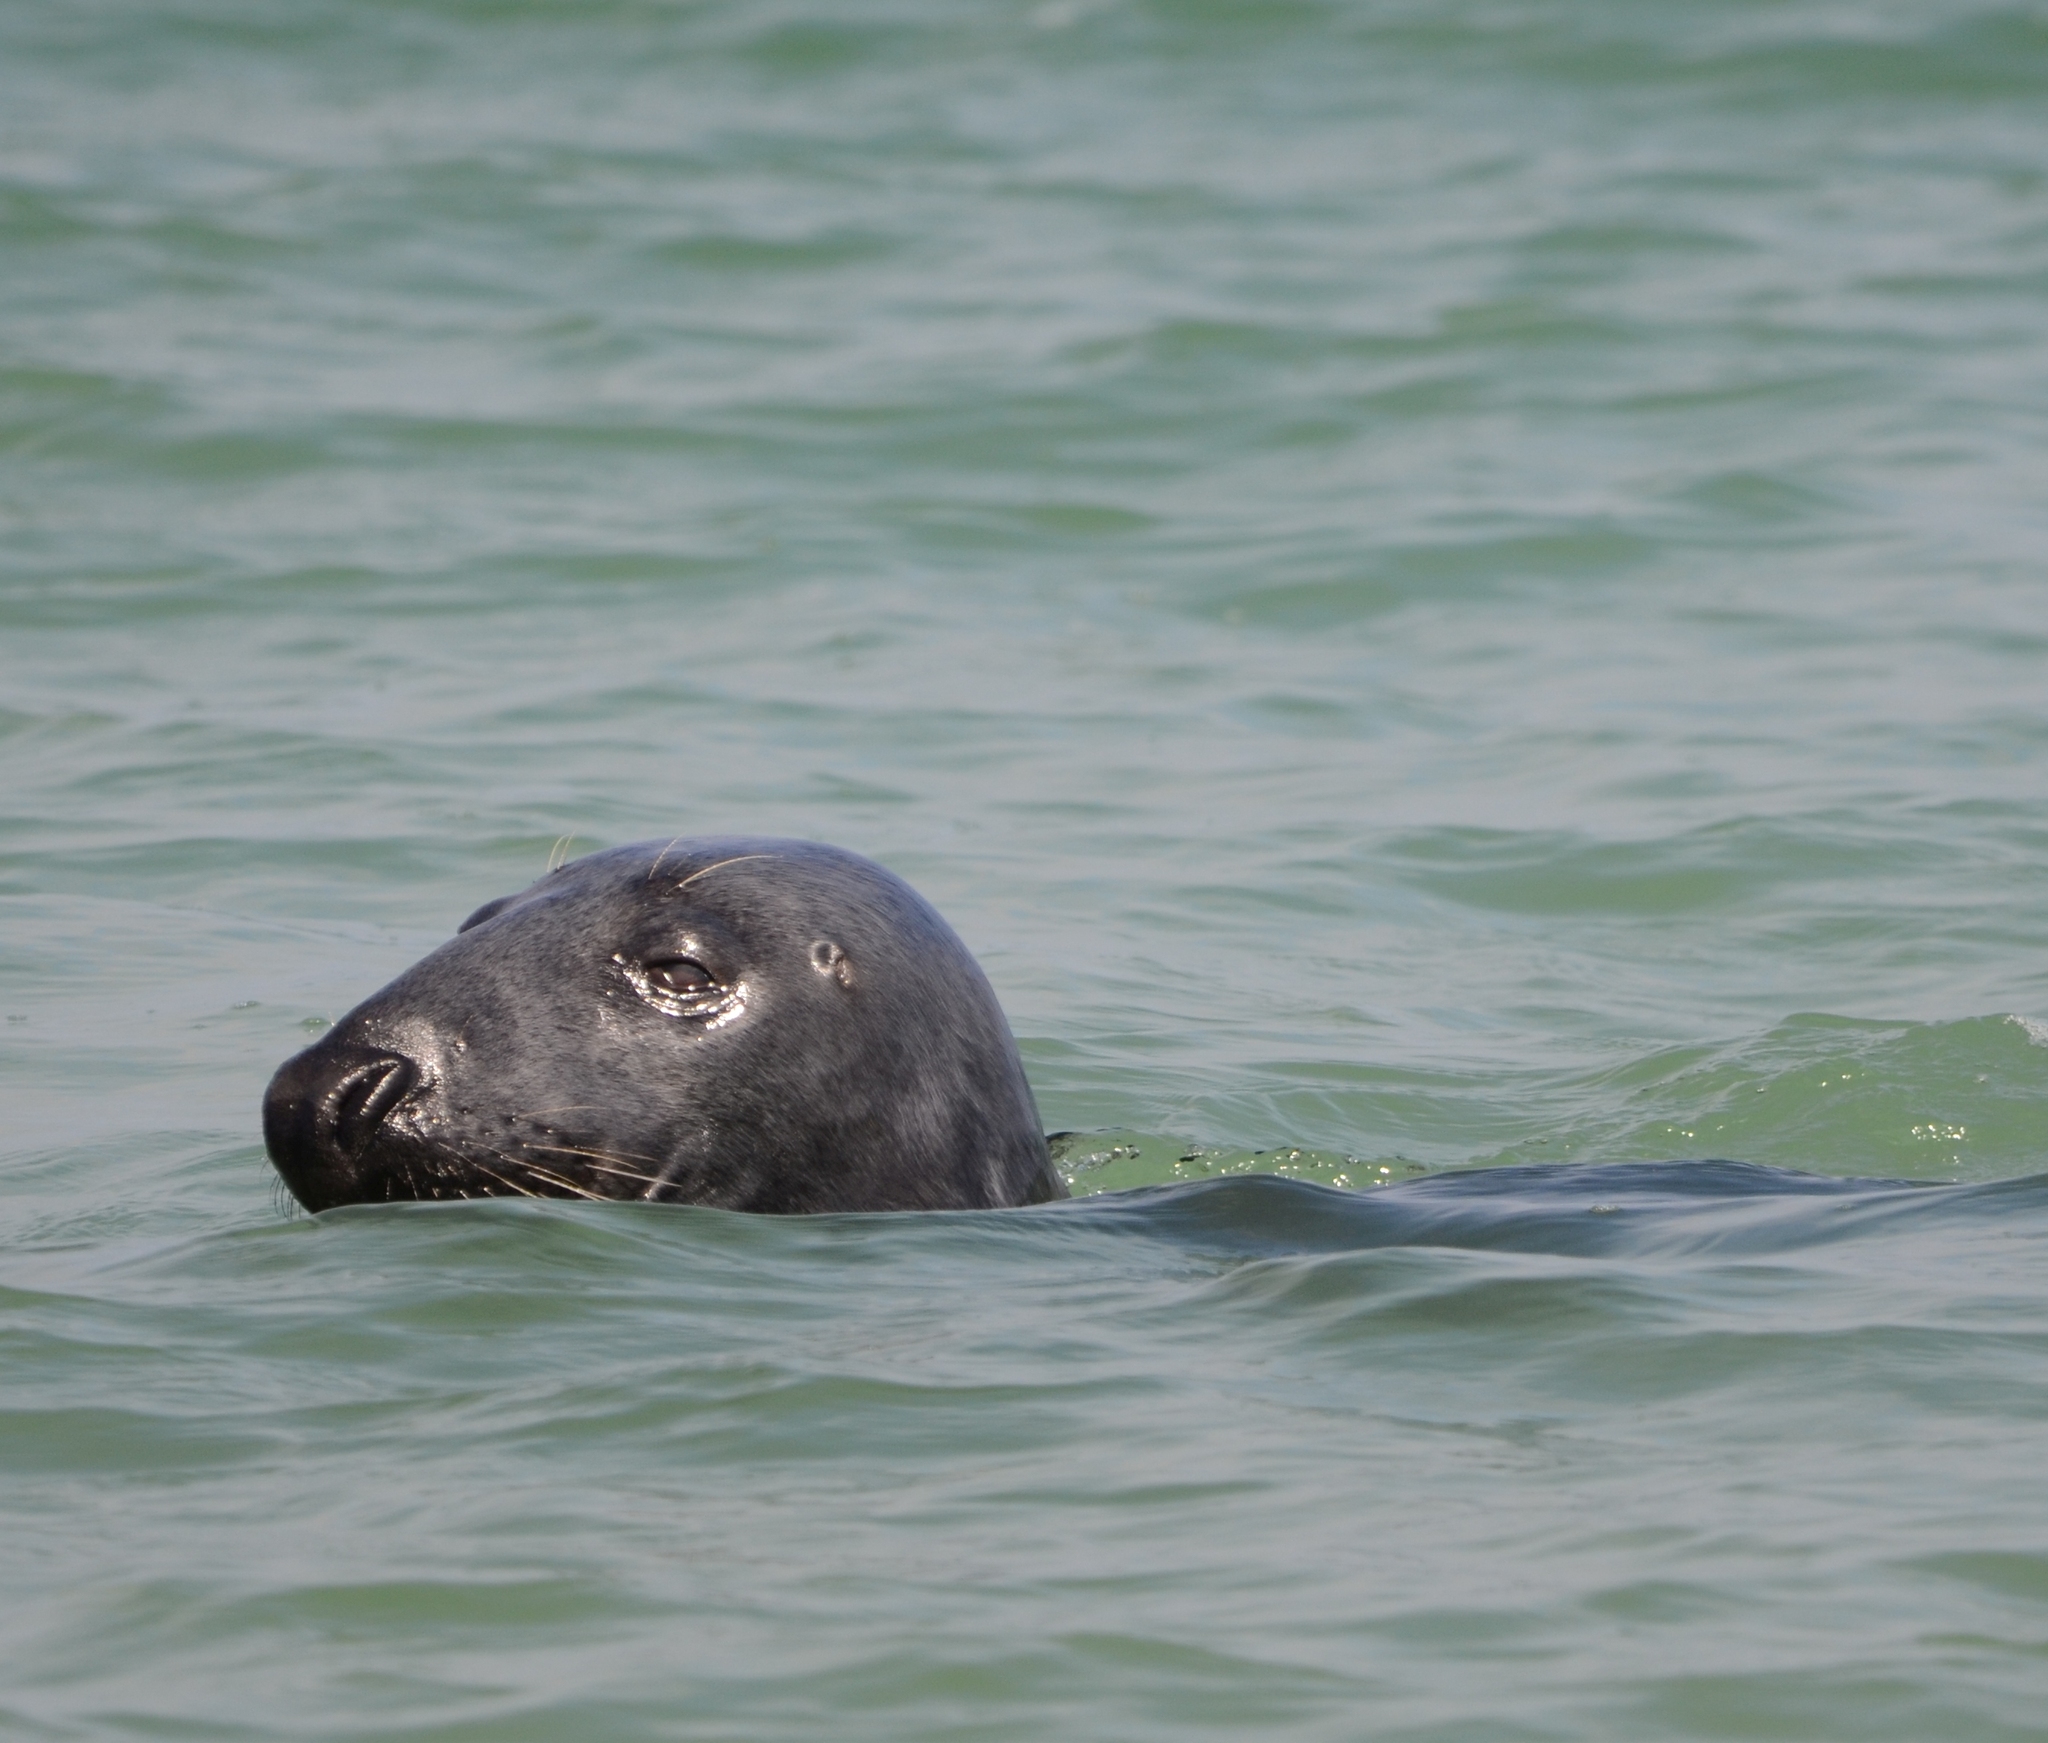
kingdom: Animalia
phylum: Chordata
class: Mammalia
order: Carnivora
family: Phocidae
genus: Halichoerus
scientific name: Halichoerus grypus
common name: Grey seal
